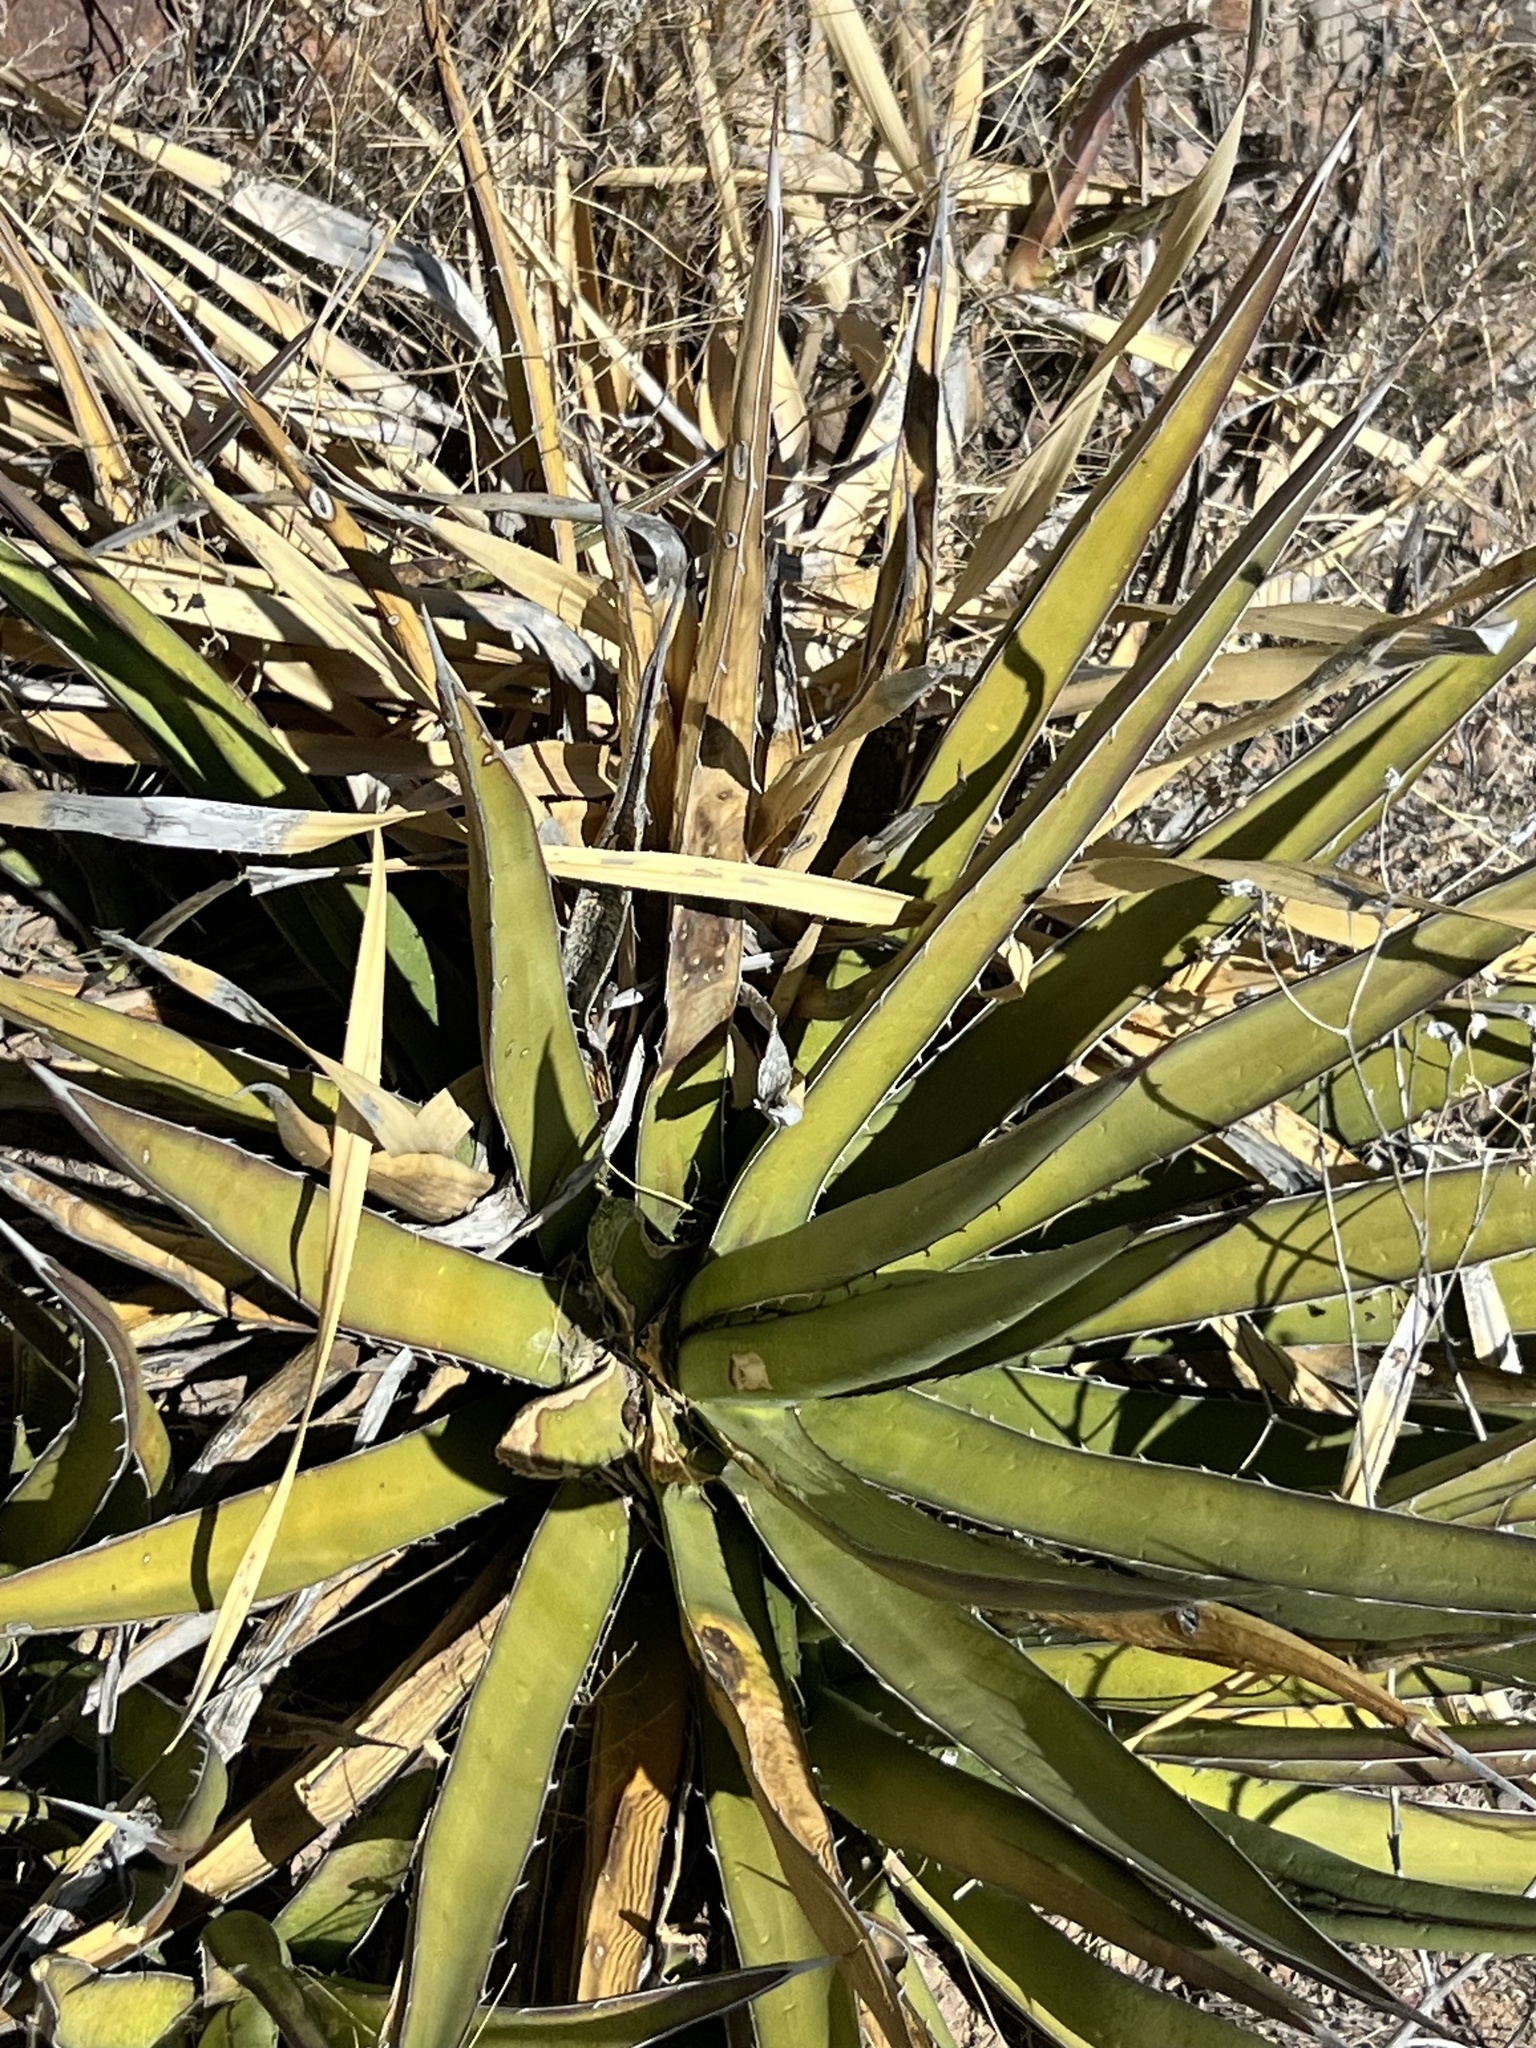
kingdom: Plantae
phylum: Tracheophyta
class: Liliopsida
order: Asparagales
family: Asparagaceae
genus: Agave
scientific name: Agave lechuguilla
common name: Lecheguilla agave
